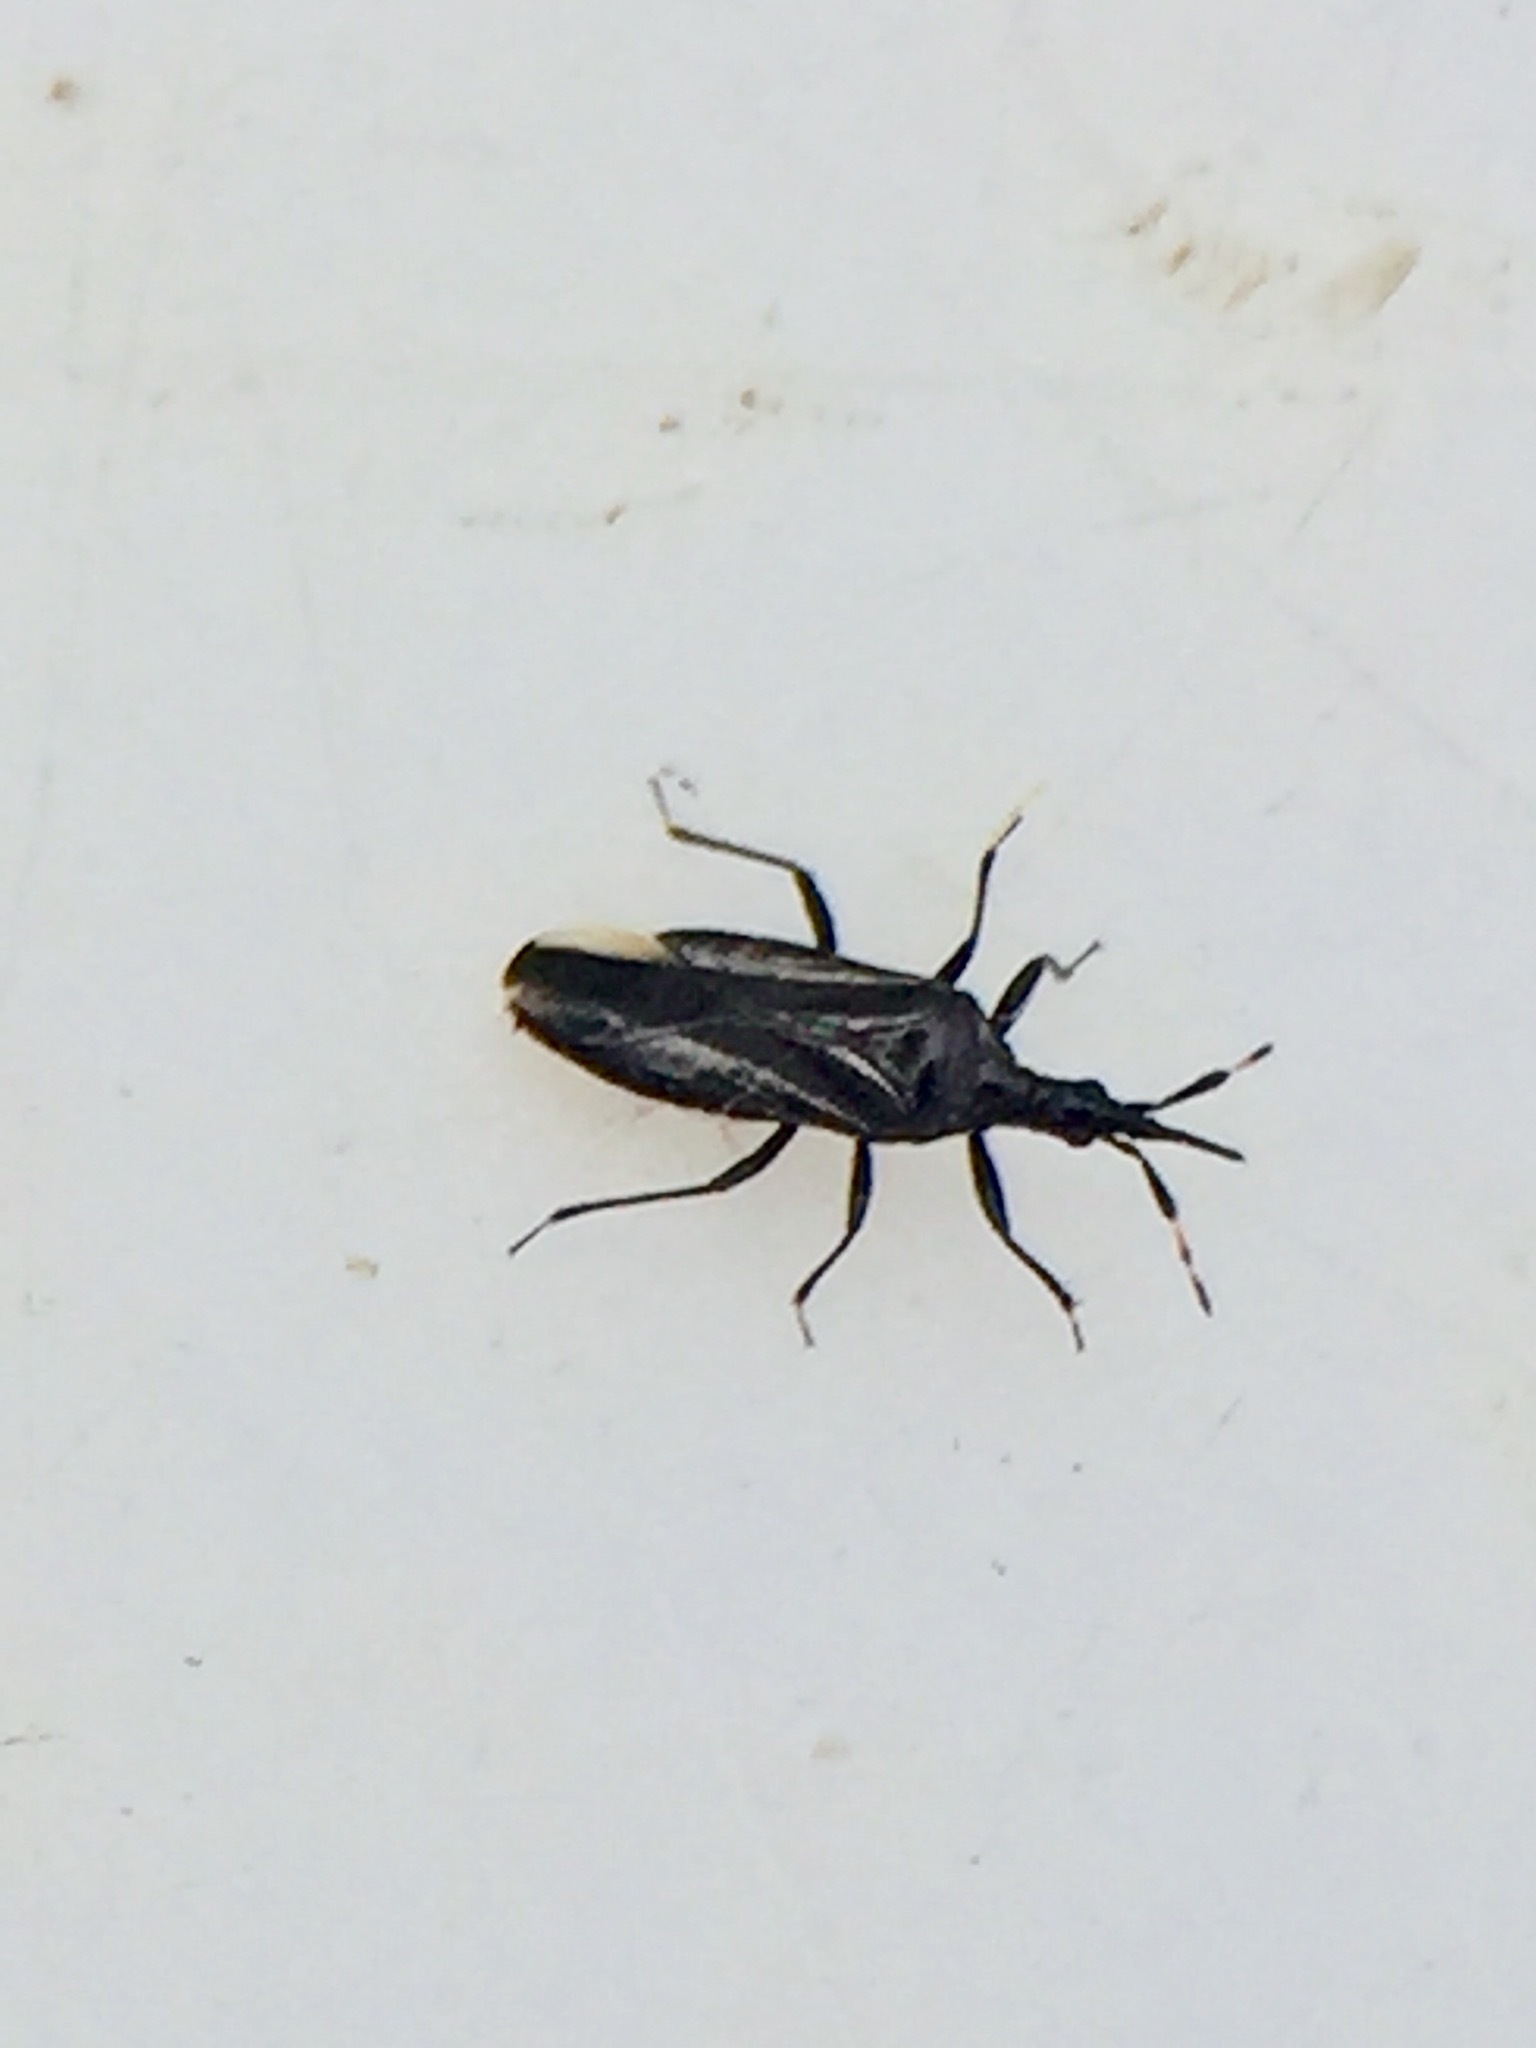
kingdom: Animalia
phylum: Arthropoda
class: Insecta
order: Hemiptera
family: Anthocoridae
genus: Macrotrachelia
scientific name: Macrotrachelia nigronitens
